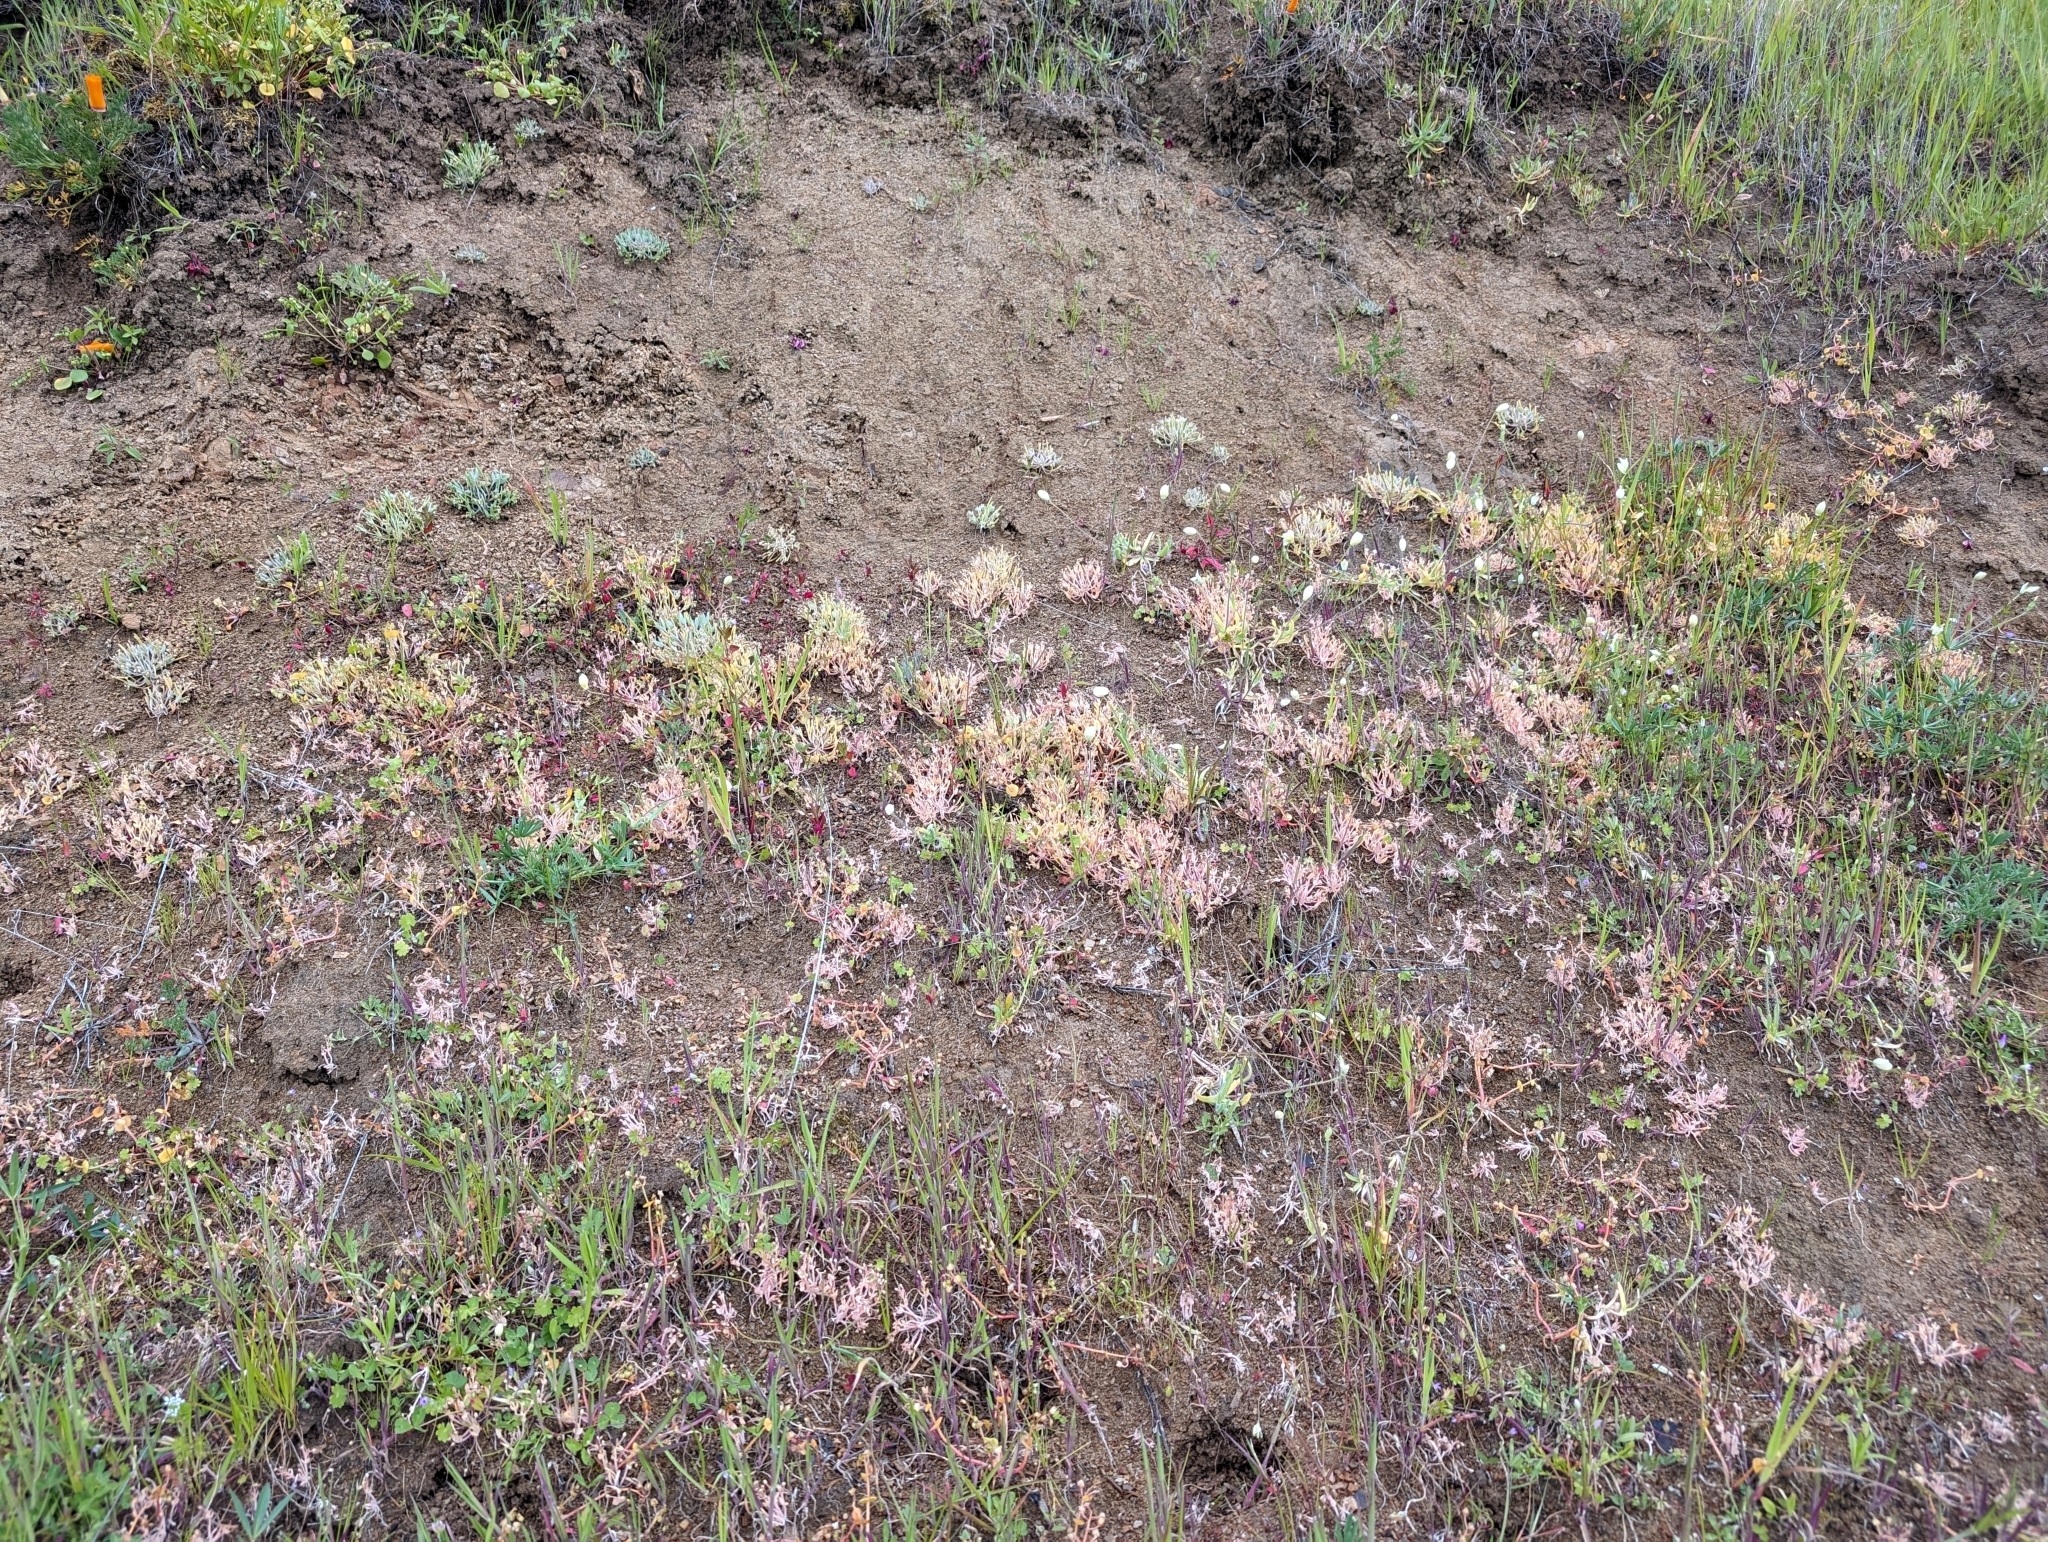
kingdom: Plantae
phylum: Tracheophyta
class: Magnoliopsida
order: Caryophyllales
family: Montiaceae
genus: Claytonia
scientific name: Claytonia exigua
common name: Pale spring beauty
